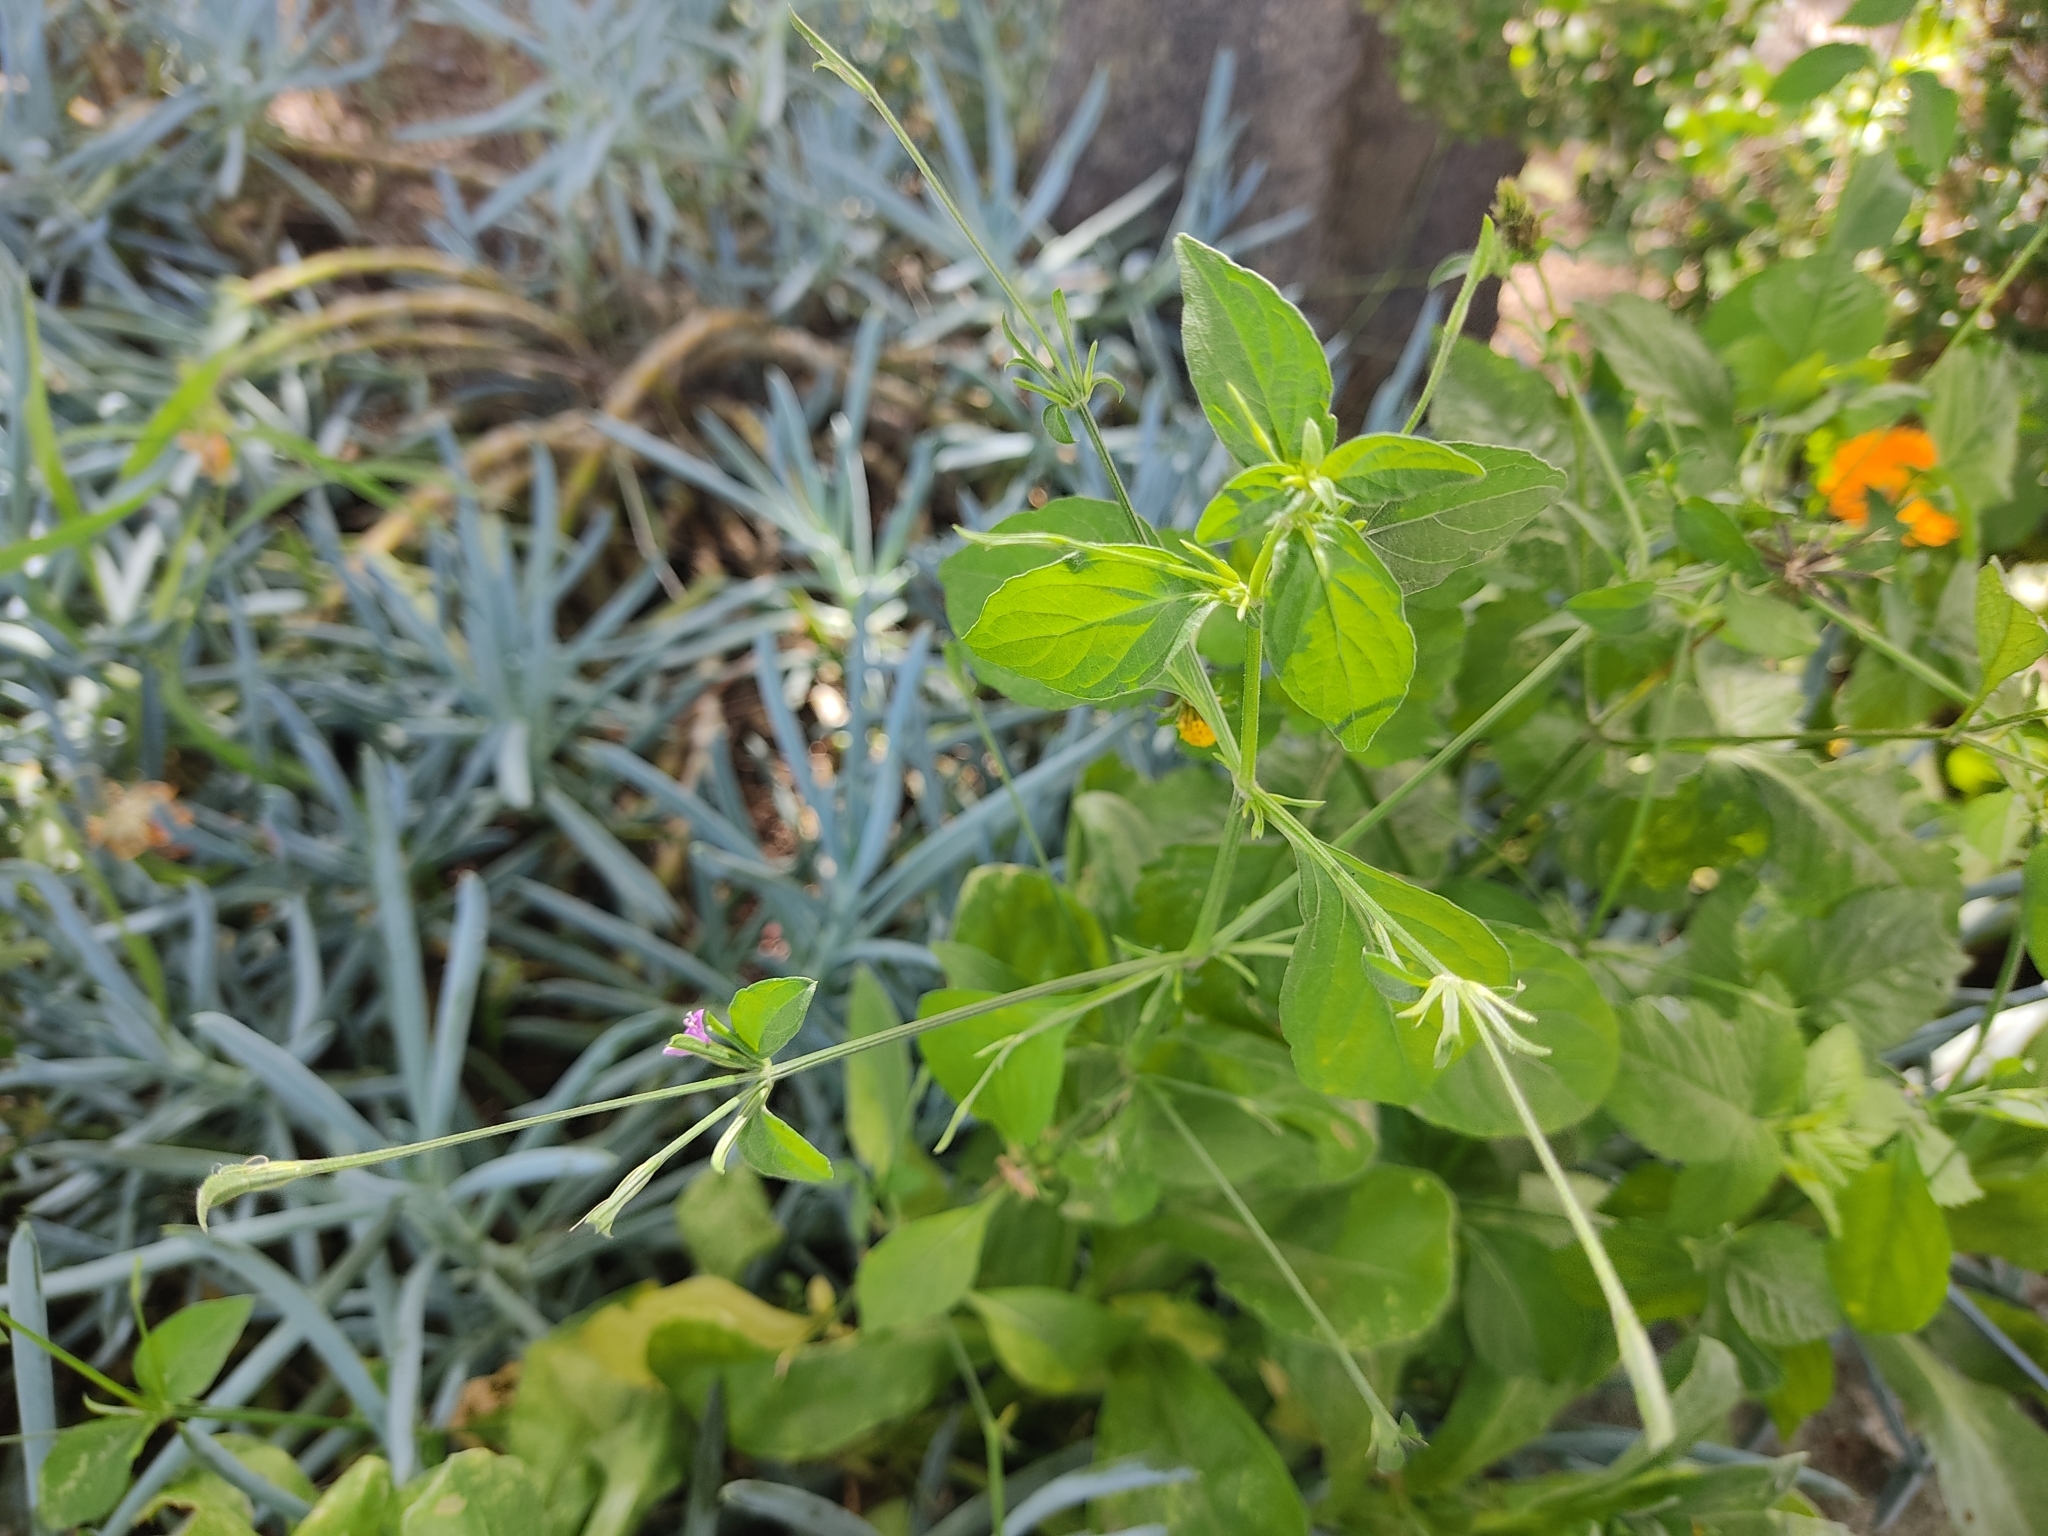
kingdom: Plantae
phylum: Tracheophyta
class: Magnoliopsida
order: Lamiales
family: Acanthaceae
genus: Dicliptera
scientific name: Dicliptera peduncularis
